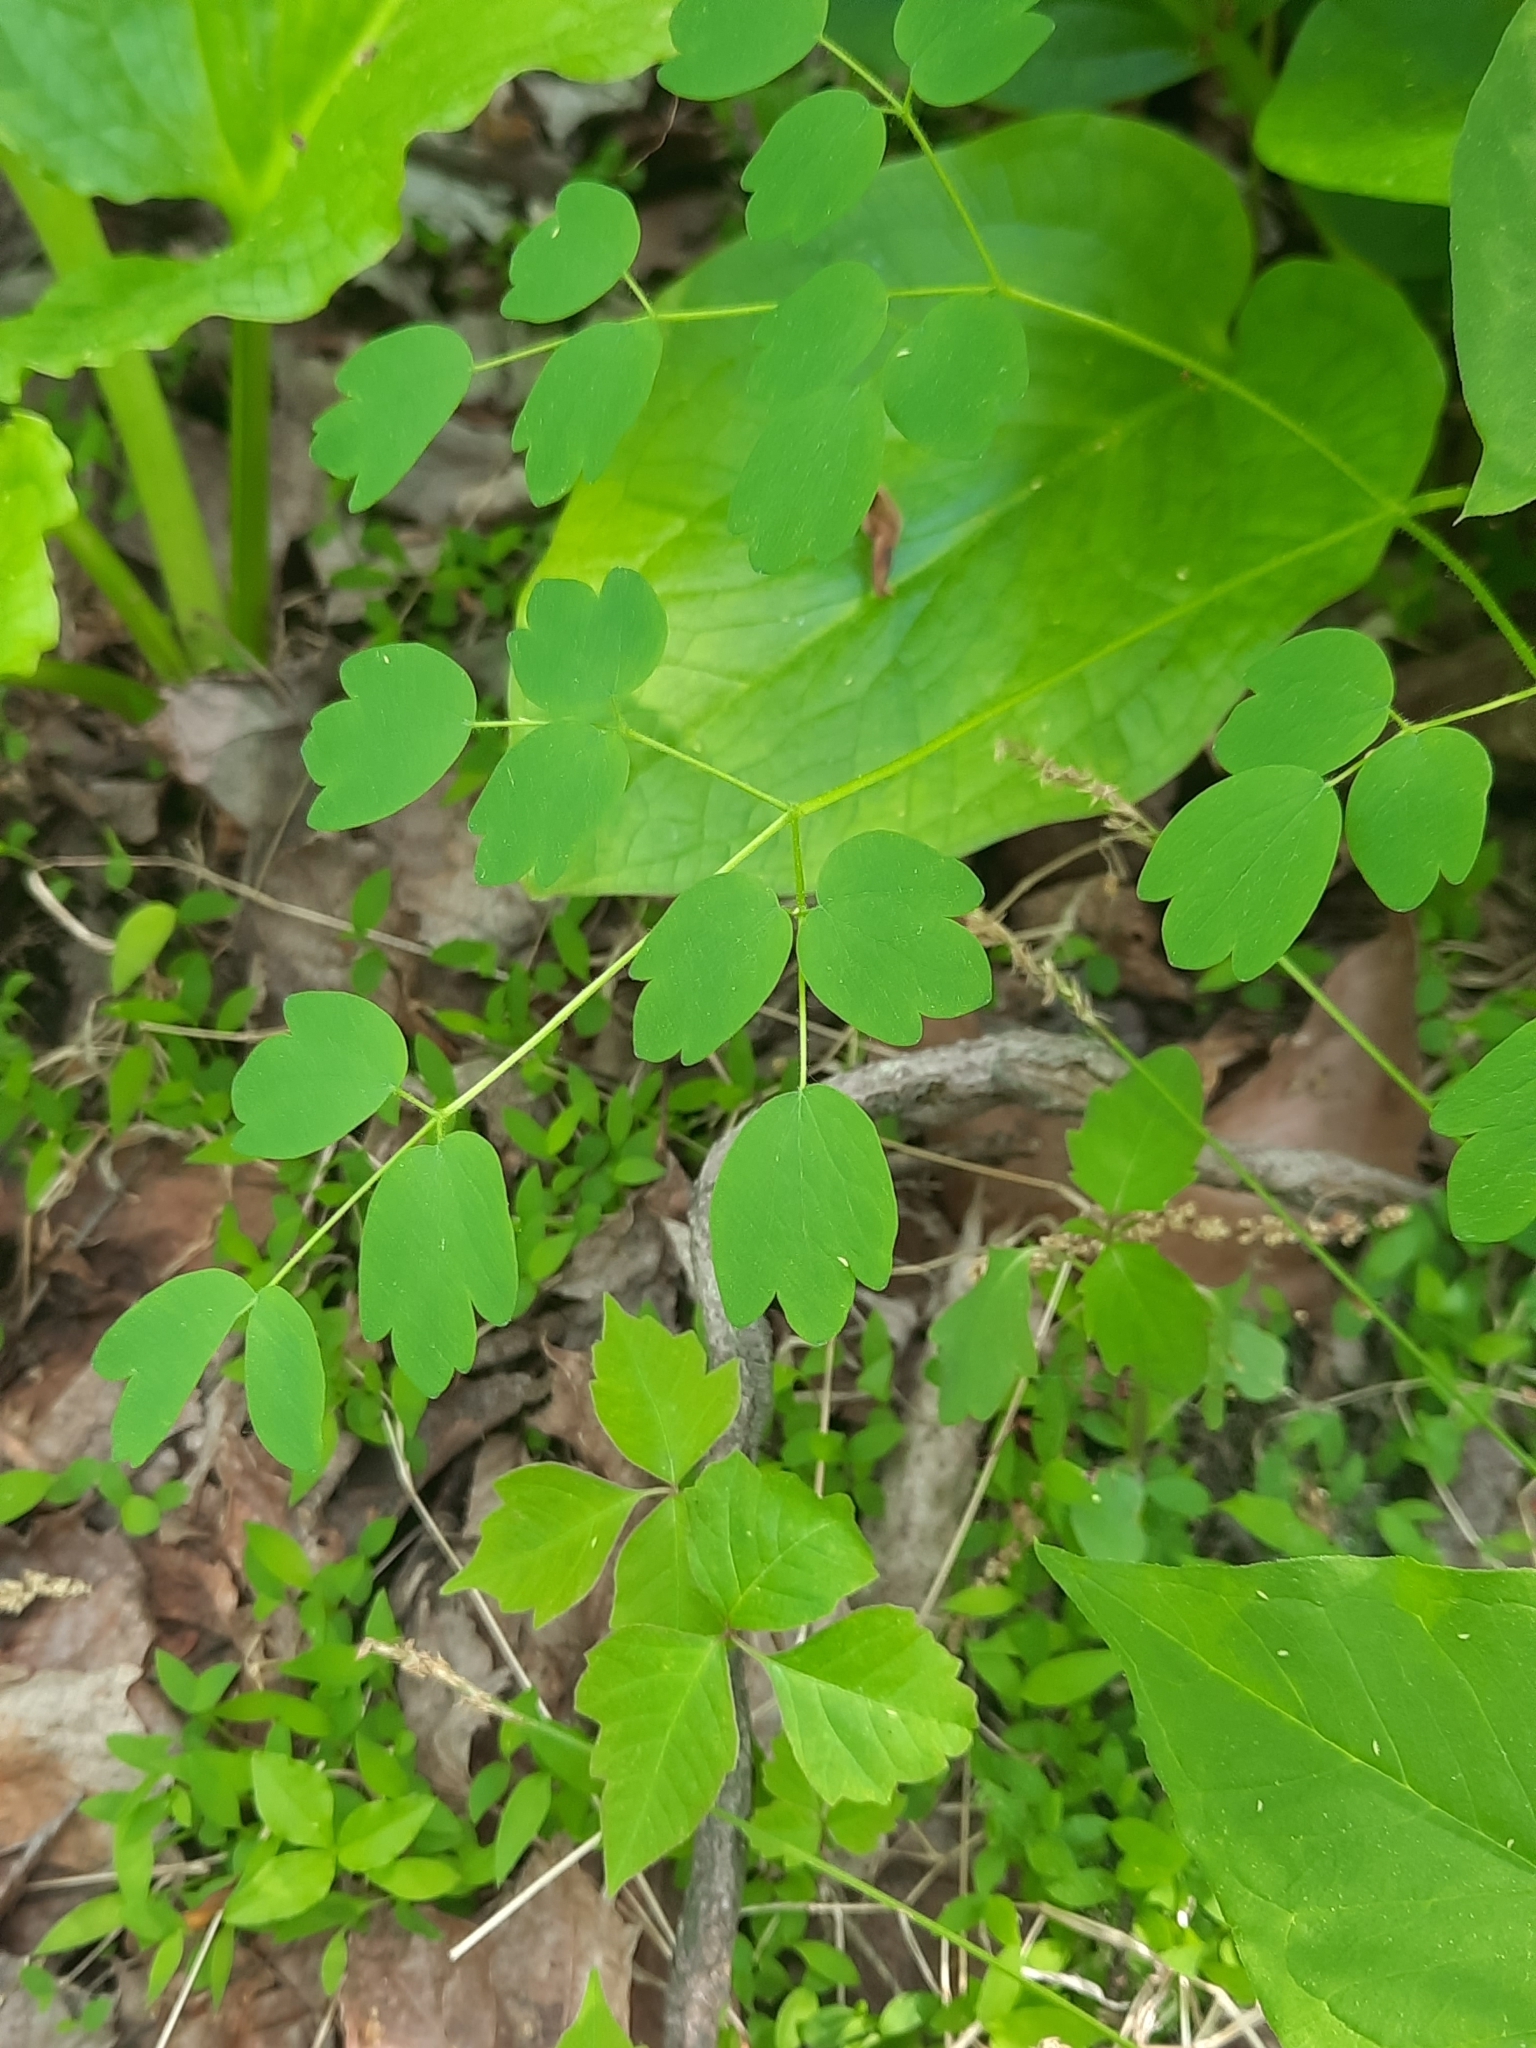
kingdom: Plantae
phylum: Tracheophyta
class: Magnoliopsida
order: Ranunculales
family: Ranunculaceae
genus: Thalictrum
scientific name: Thalictrum pubescens
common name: King-of-the-meadow
